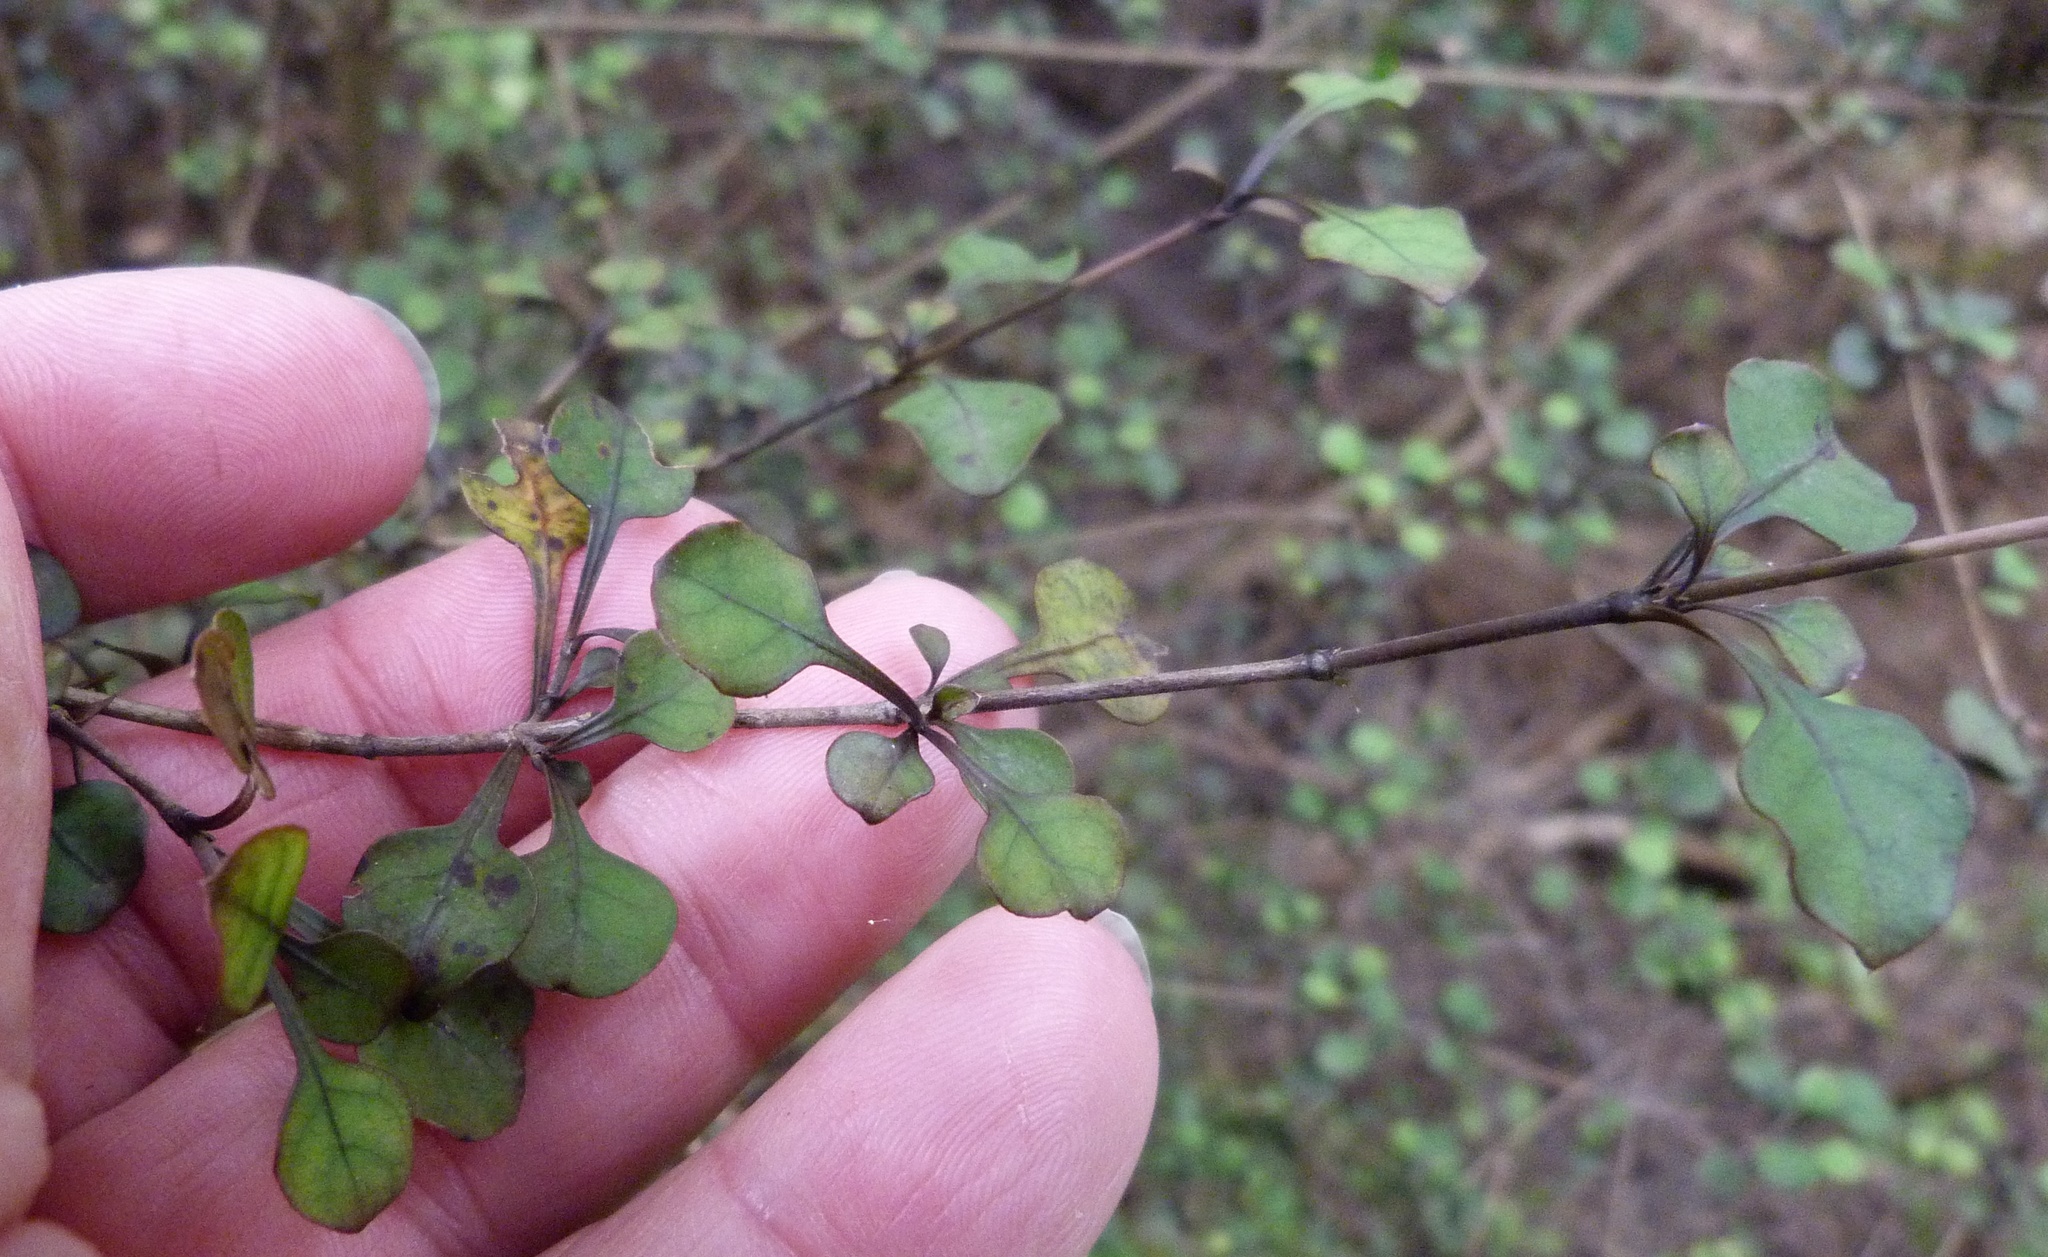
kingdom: Plantae
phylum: Tracheophyta
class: Magnoliopsida
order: Gentianales
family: Rubiaceae
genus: Coprosma
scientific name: Coprosma spathulata
